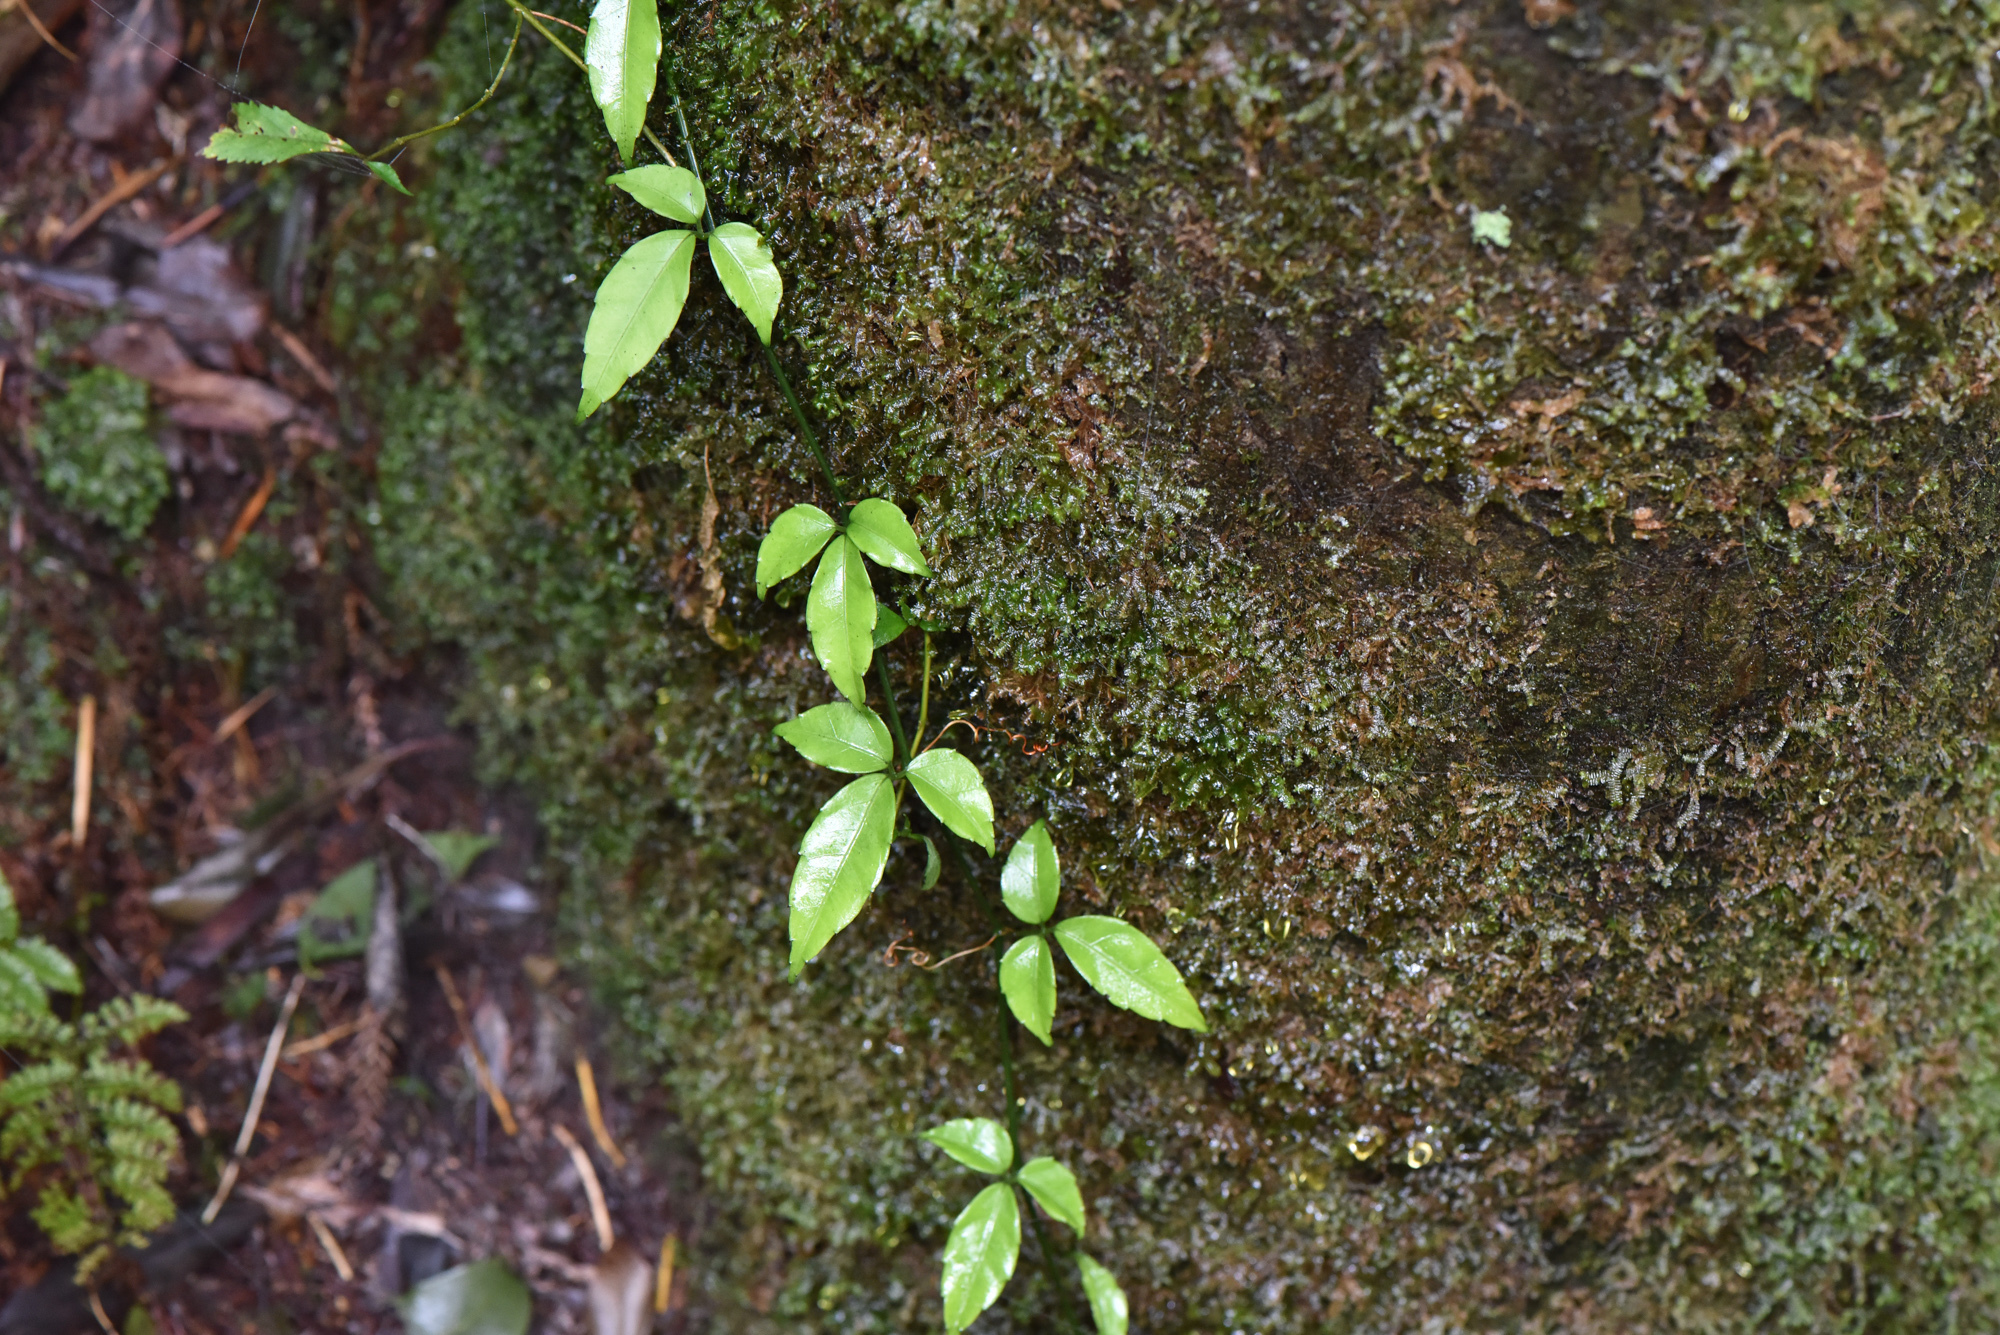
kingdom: Plantae
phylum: Tracheophyta
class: Magnoliopsida
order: Vitales
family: Vitaceae
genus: Tetrastigma
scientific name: Tetrastigma formosanum
